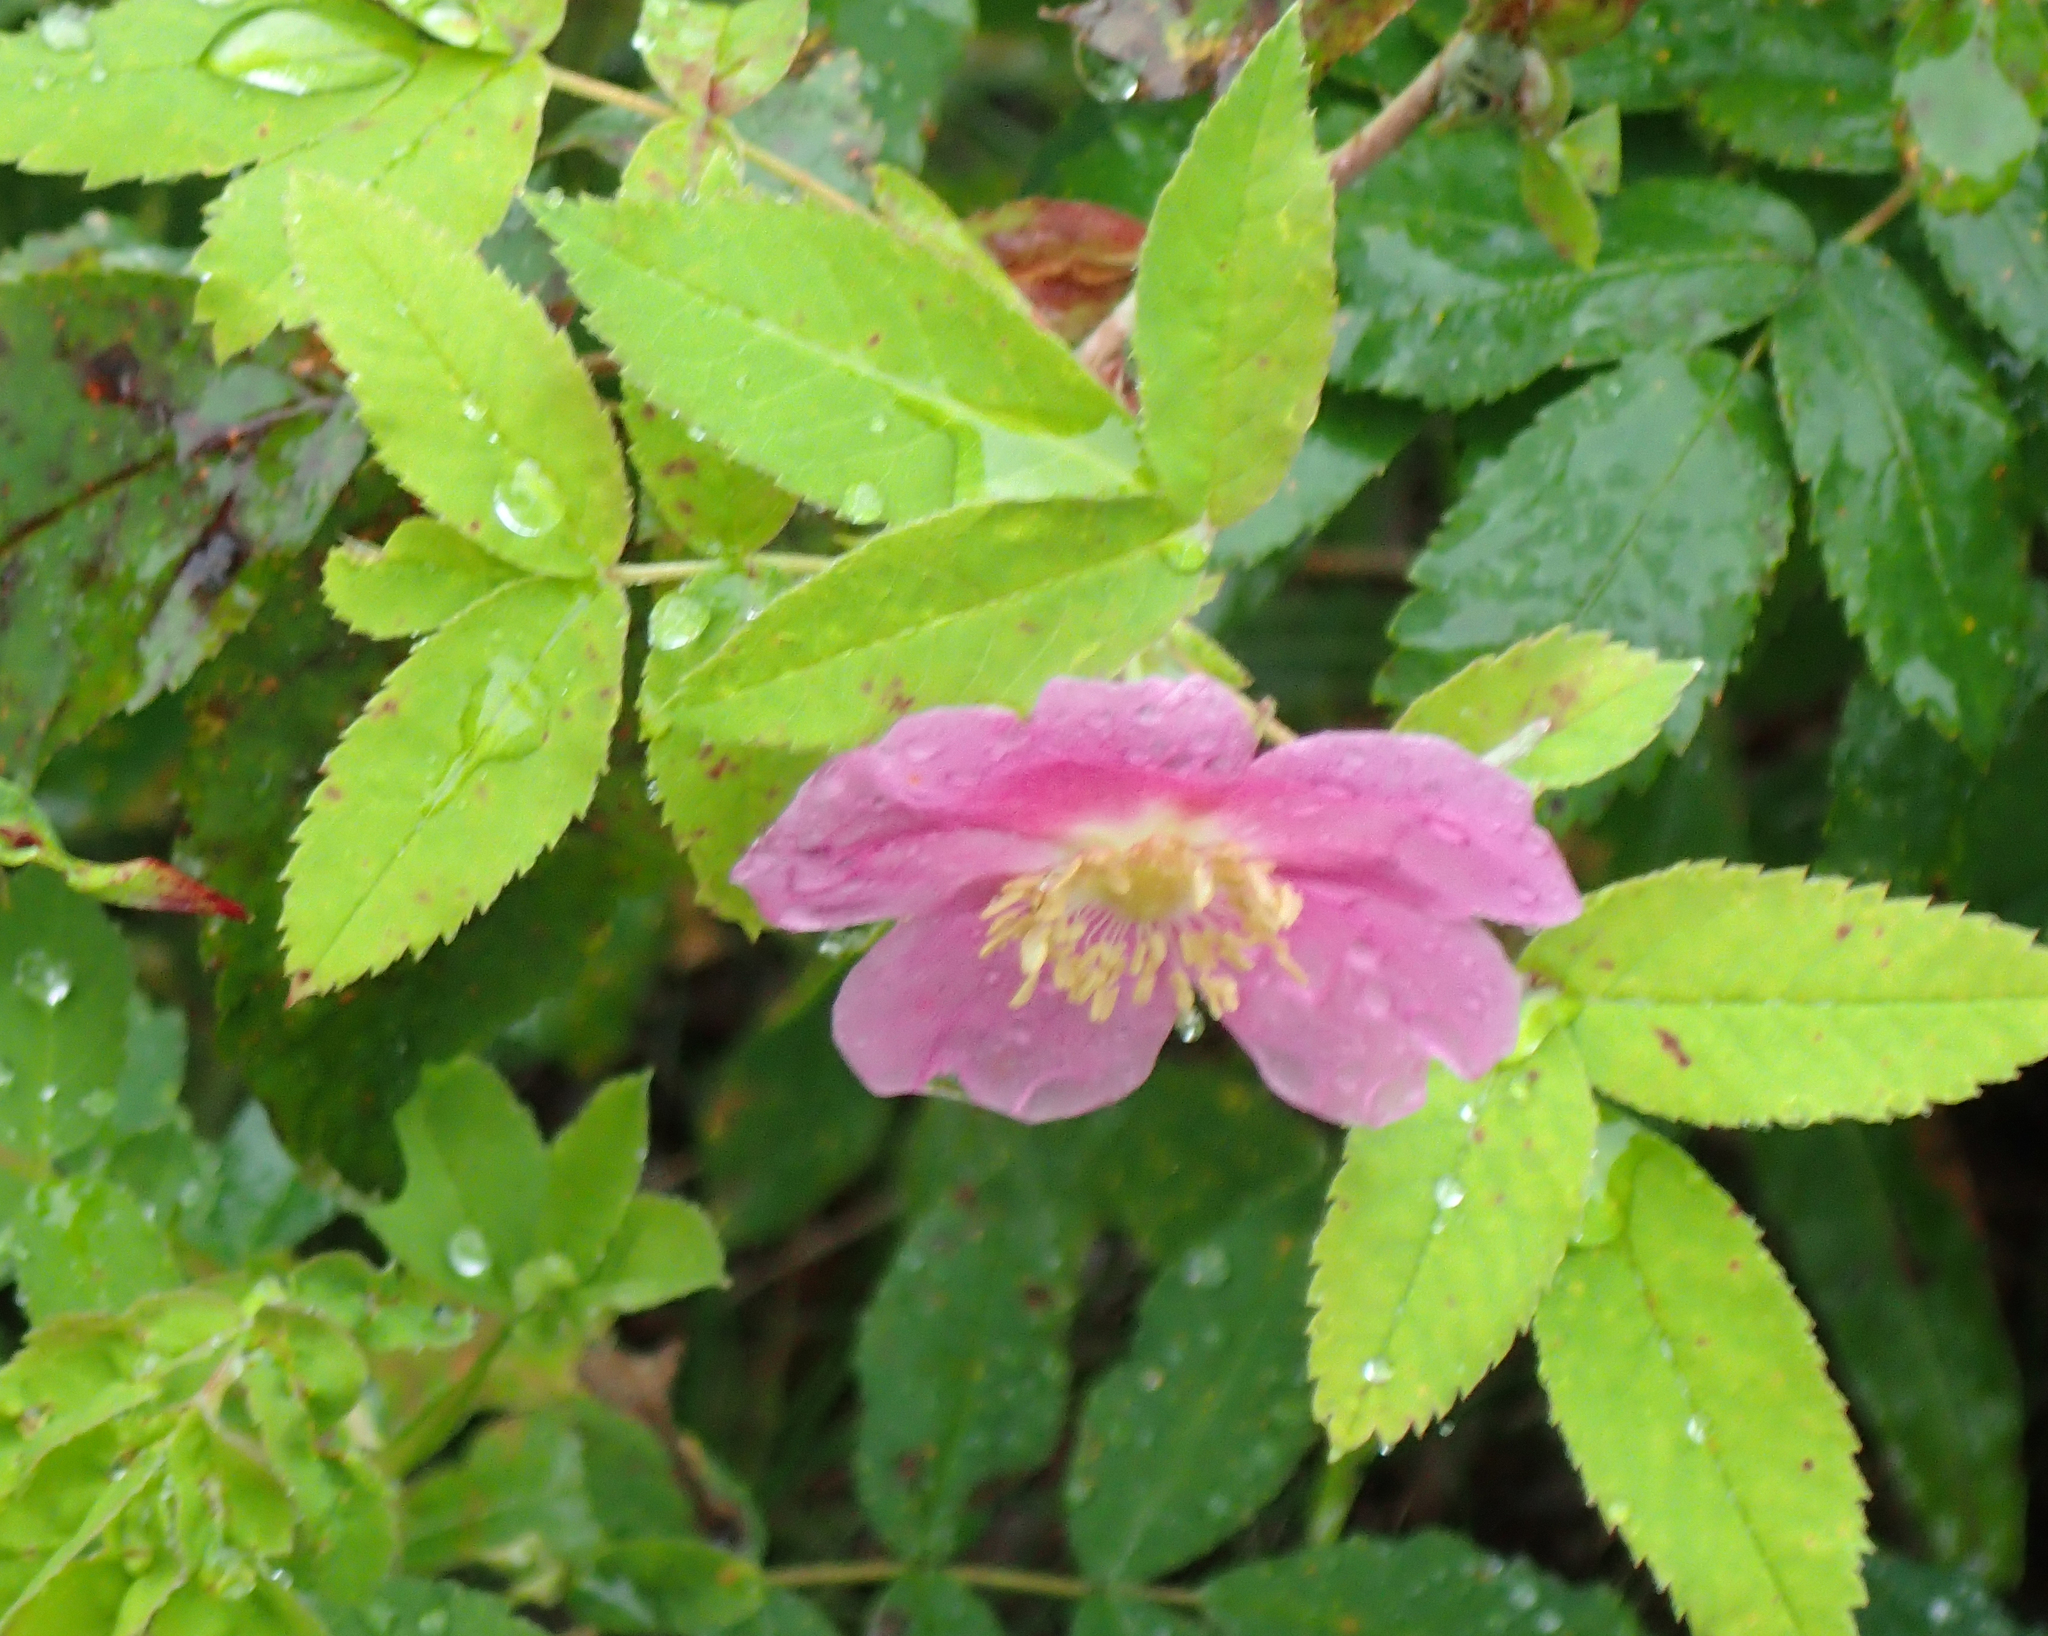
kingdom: Plantae
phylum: Tracheophyta
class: Magnoliopsida
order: Rosales
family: Rosaceae
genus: Rosa
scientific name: Rosa acicularis
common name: Prickly rose
